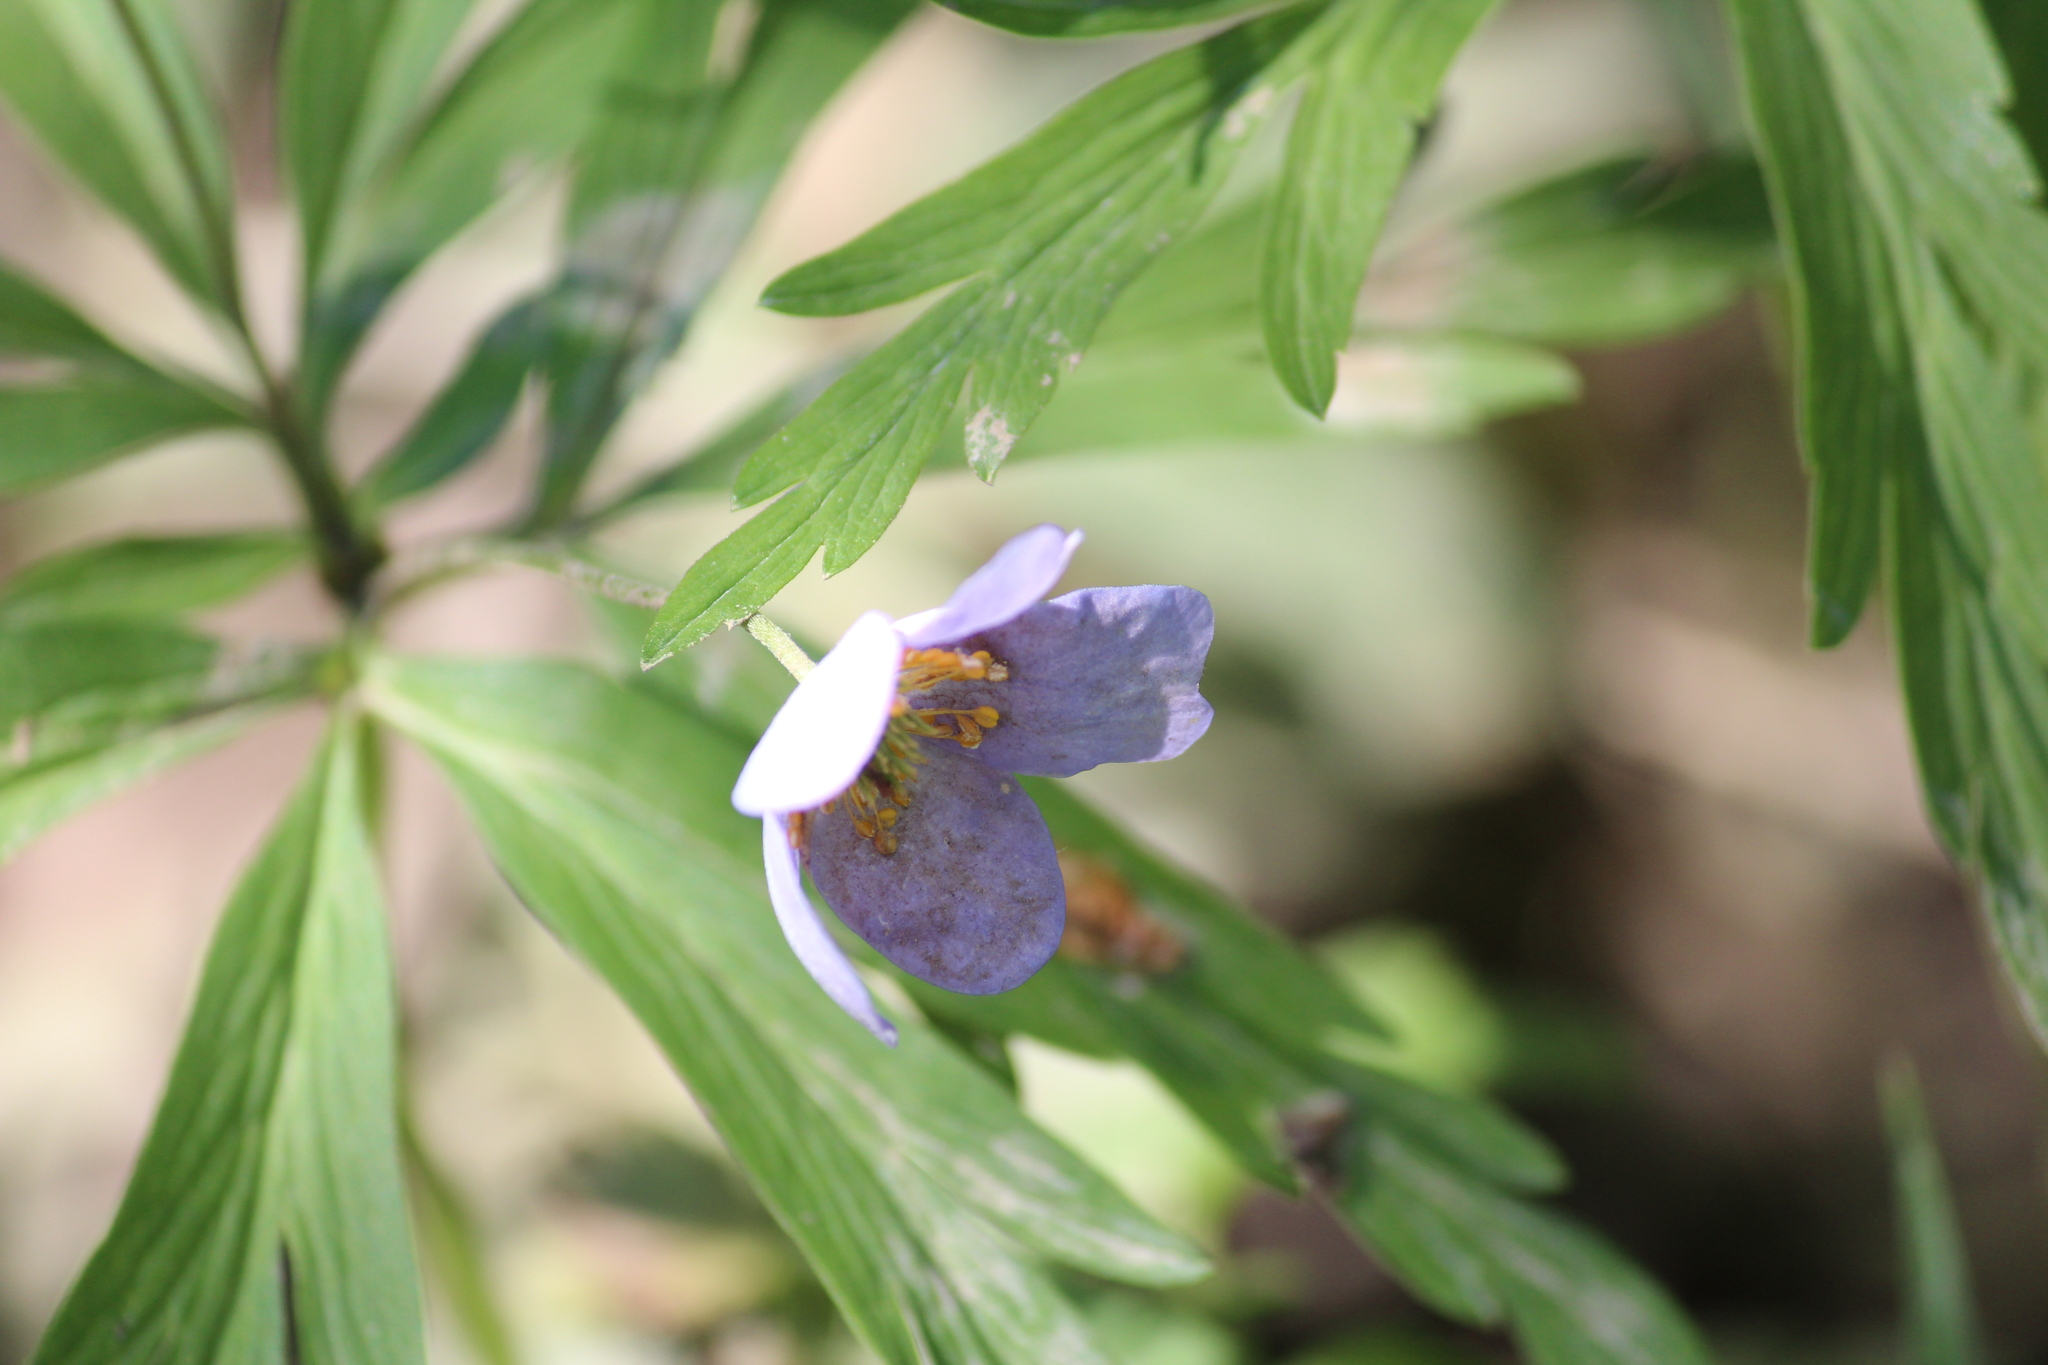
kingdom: Plantae
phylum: Tracheophyta
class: Magnoliopsida
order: Ranunculales
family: Ranunculaceae
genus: Anemone
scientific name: Anemone caerulea
